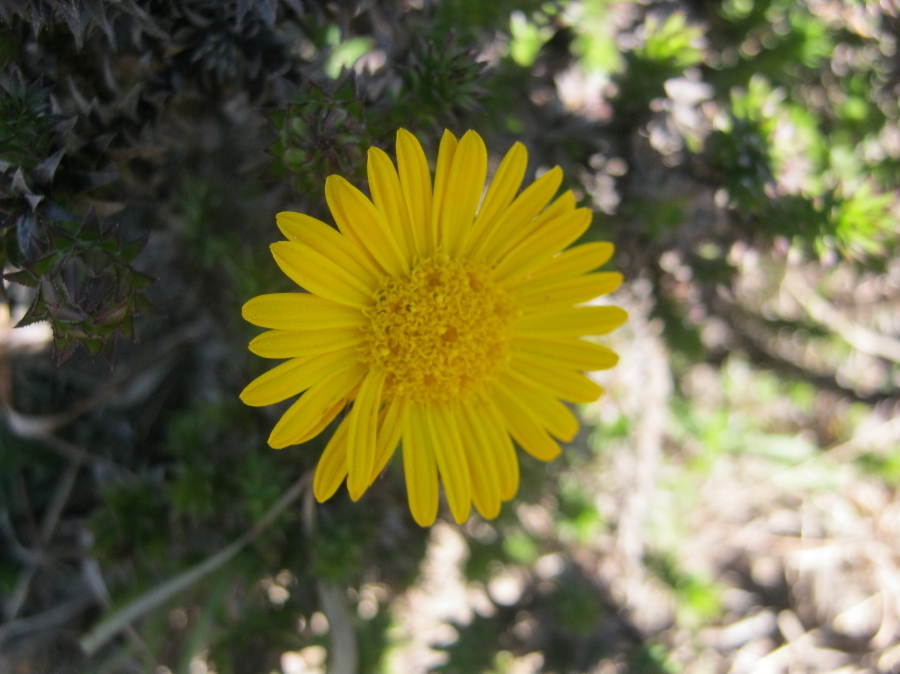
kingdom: Plantae
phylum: Tracheophyta
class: Magnoliopsida
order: Asterales
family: Asteraceae
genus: Oedera
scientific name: Oedera imbricata
